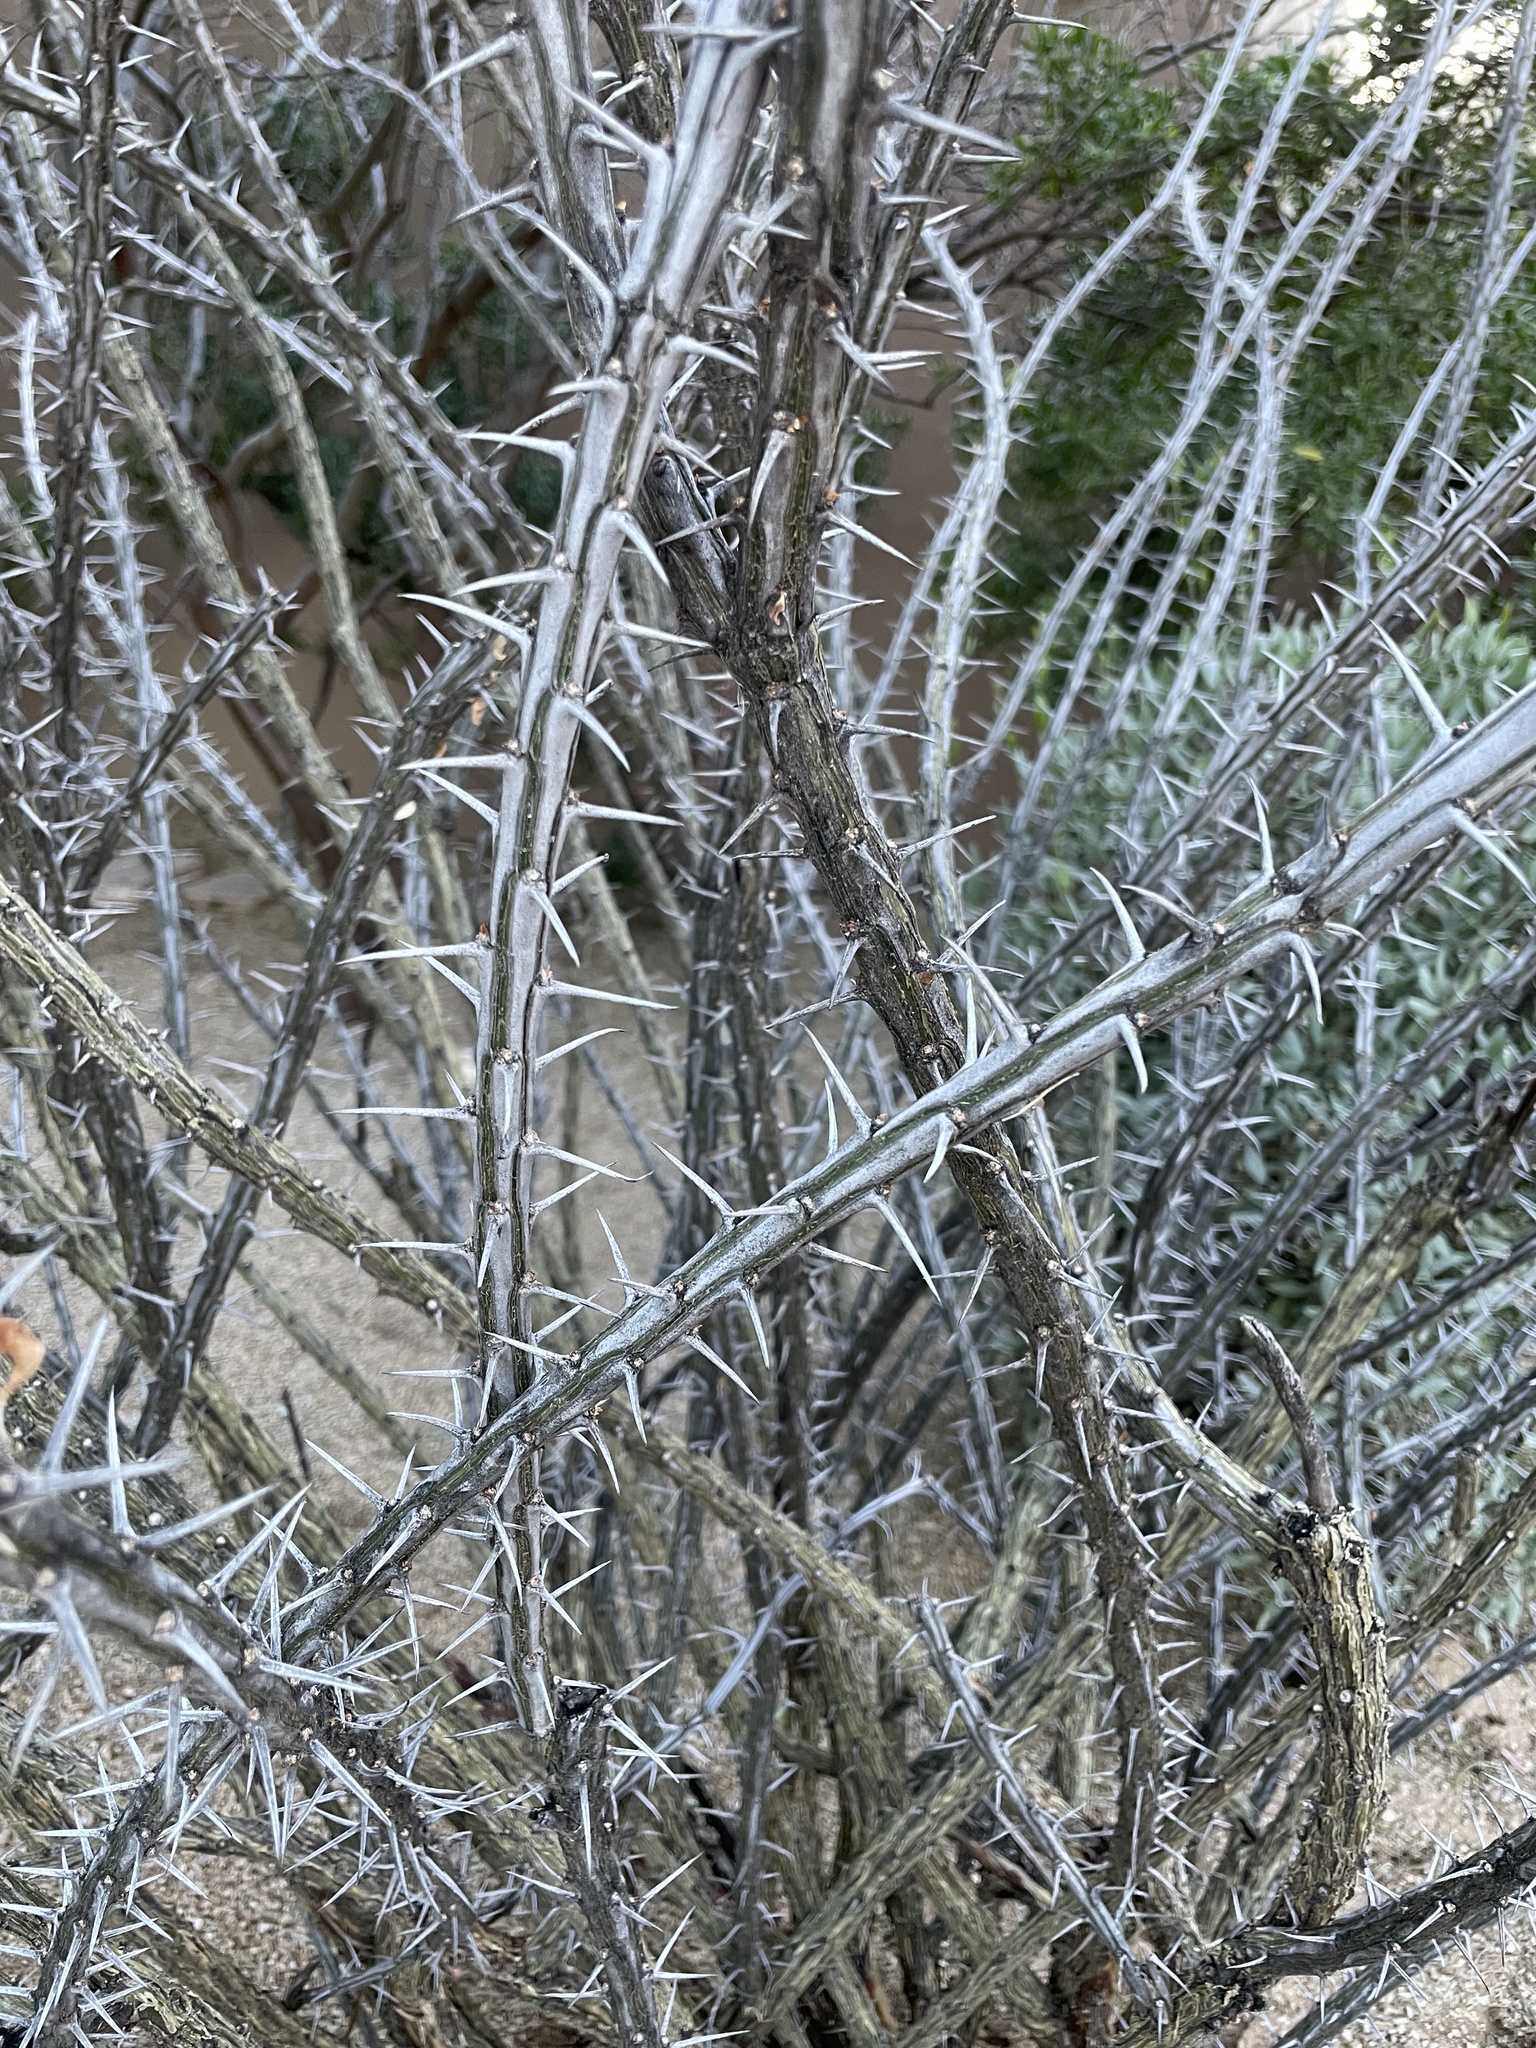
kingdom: Plantae
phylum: Tracheophyta
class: Magnoliopsida
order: Ericales
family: Fouquieriaceae
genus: Fouquieria
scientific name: Fouquieria splendens
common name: Vine-cactus
